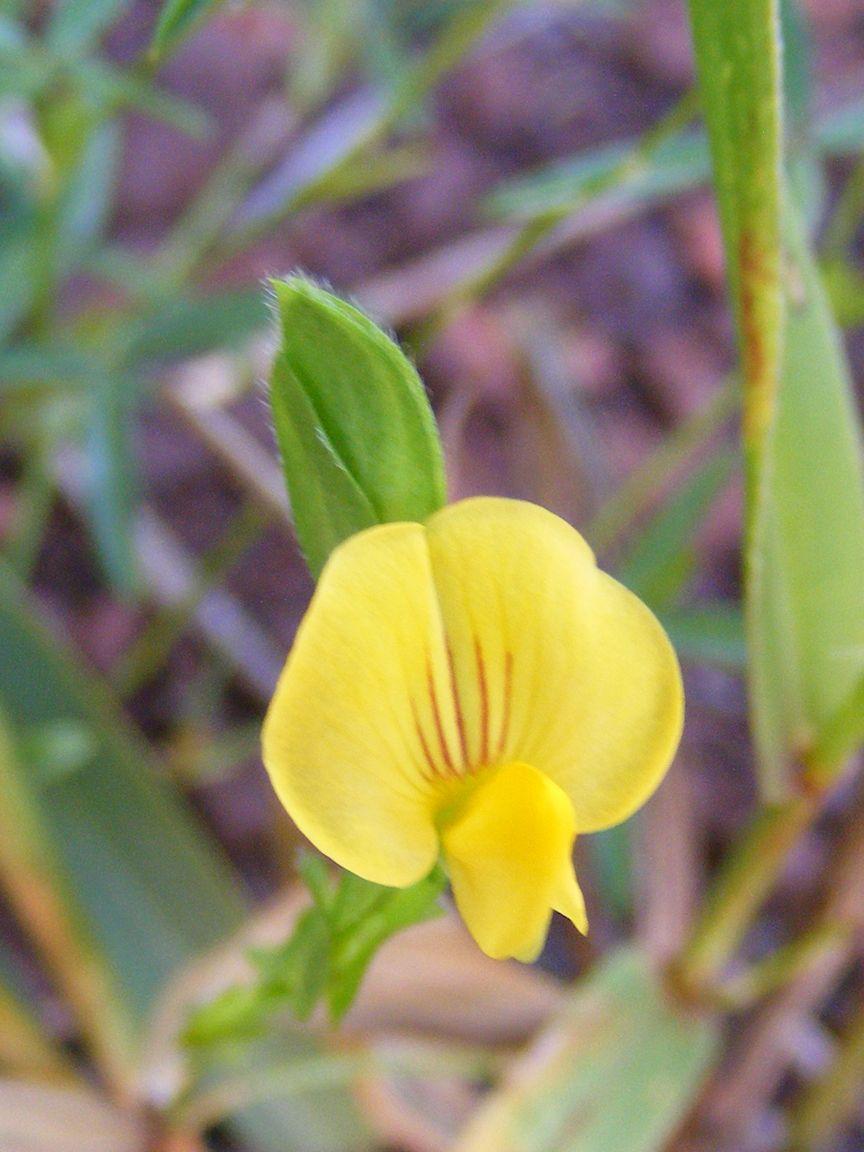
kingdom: Plantae
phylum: Tracheophyta
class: Magnoliopsida
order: Fabales
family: Fabaceae
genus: Zornia
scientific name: Zornia milneana
